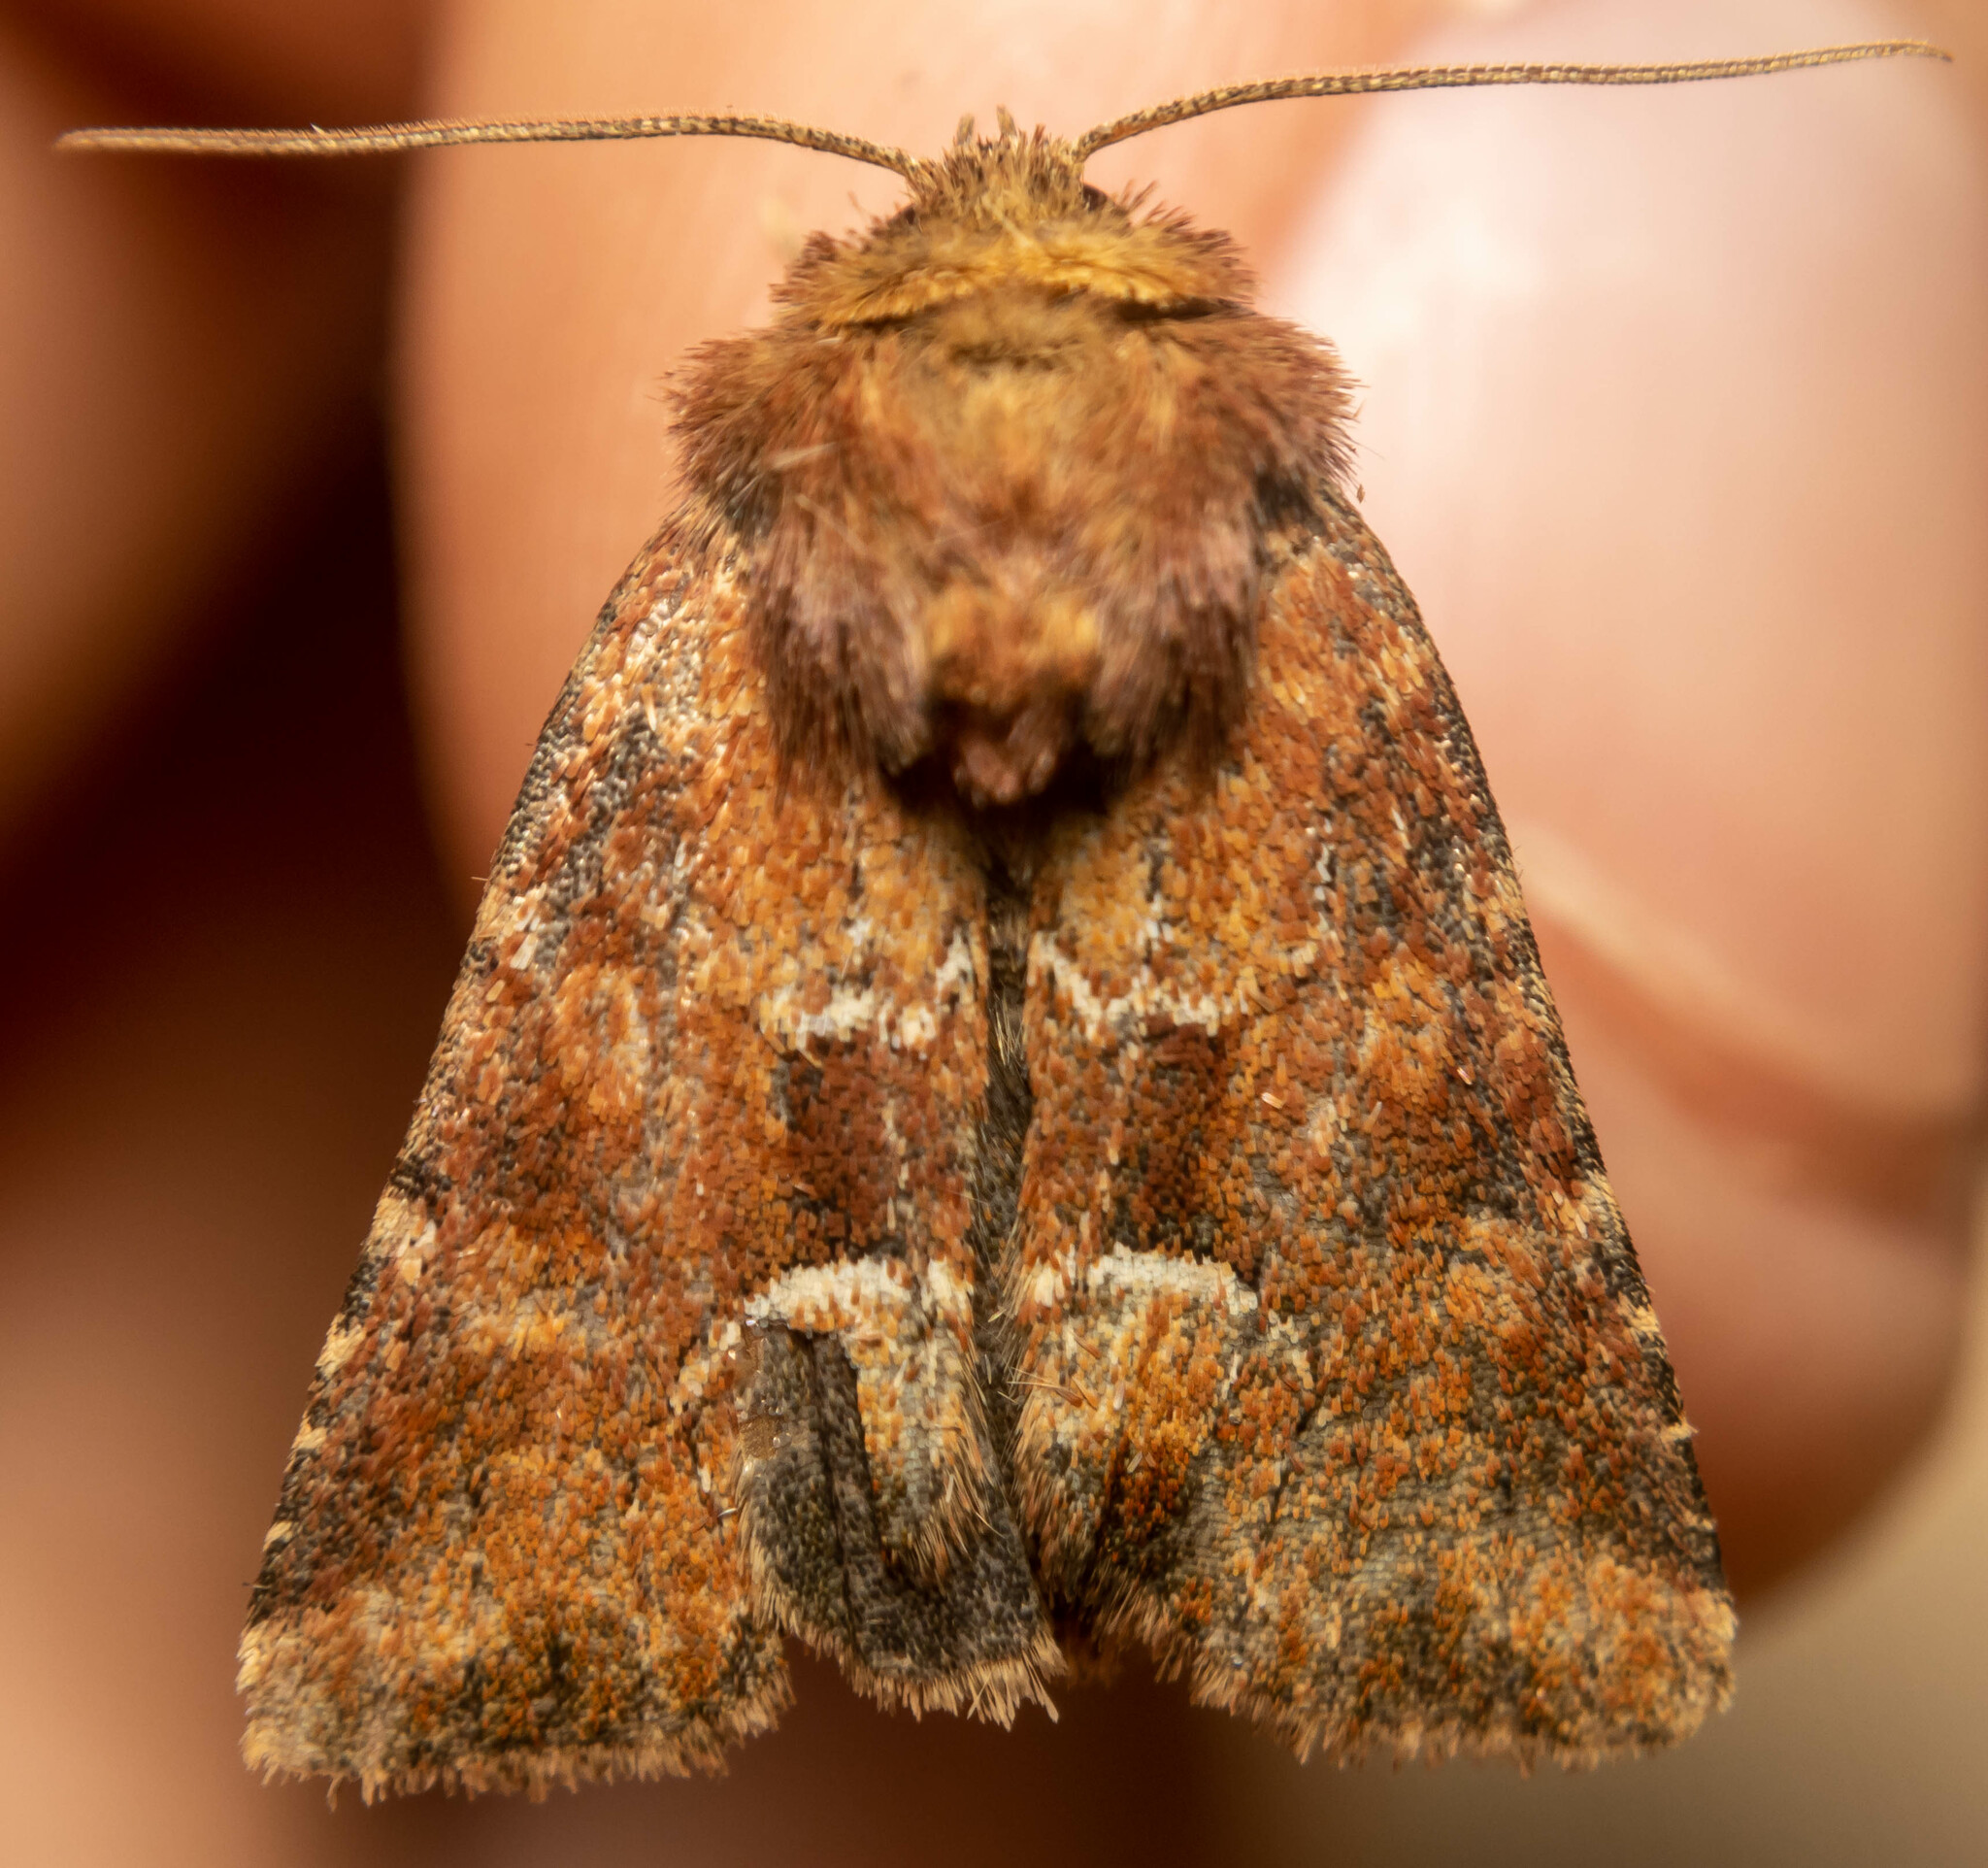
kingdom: Animalia
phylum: Arthropoda
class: Insecta
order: Lepidoptera
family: Noctuidae
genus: Oligia
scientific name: Oligia fasciuncula
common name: Middle-barred minor
